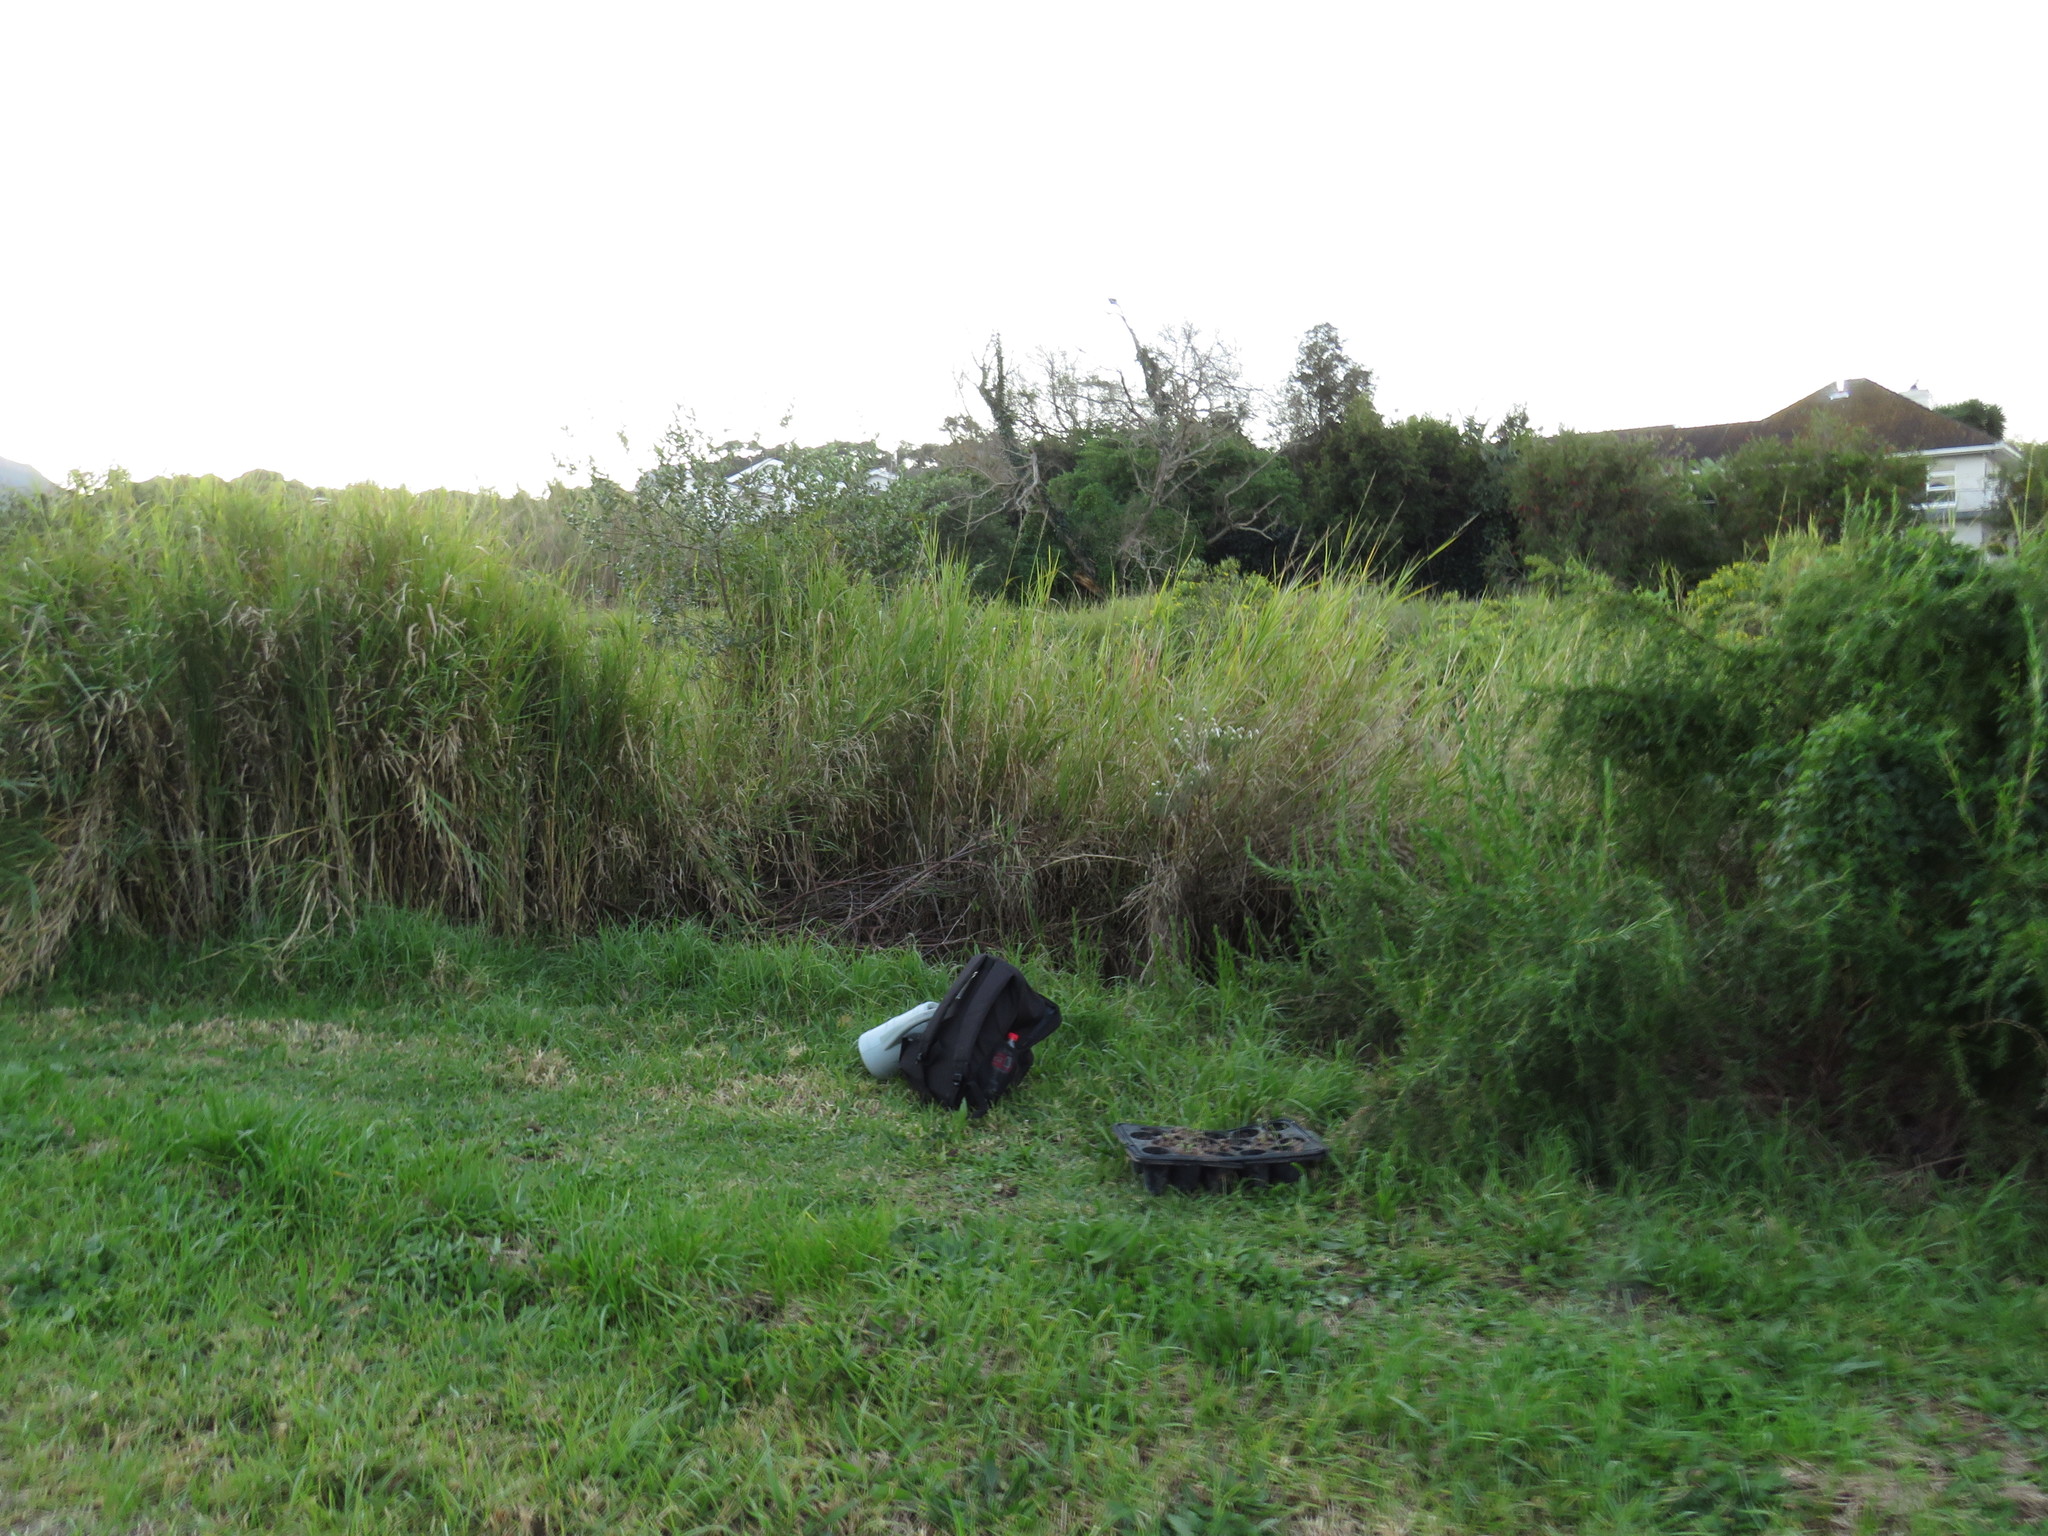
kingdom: Plantae
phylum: Tracheophyta
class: Magnoliopsida
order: Fabales
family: Fabaceae
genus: Psoralea
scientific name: Psoralea fascicularis
